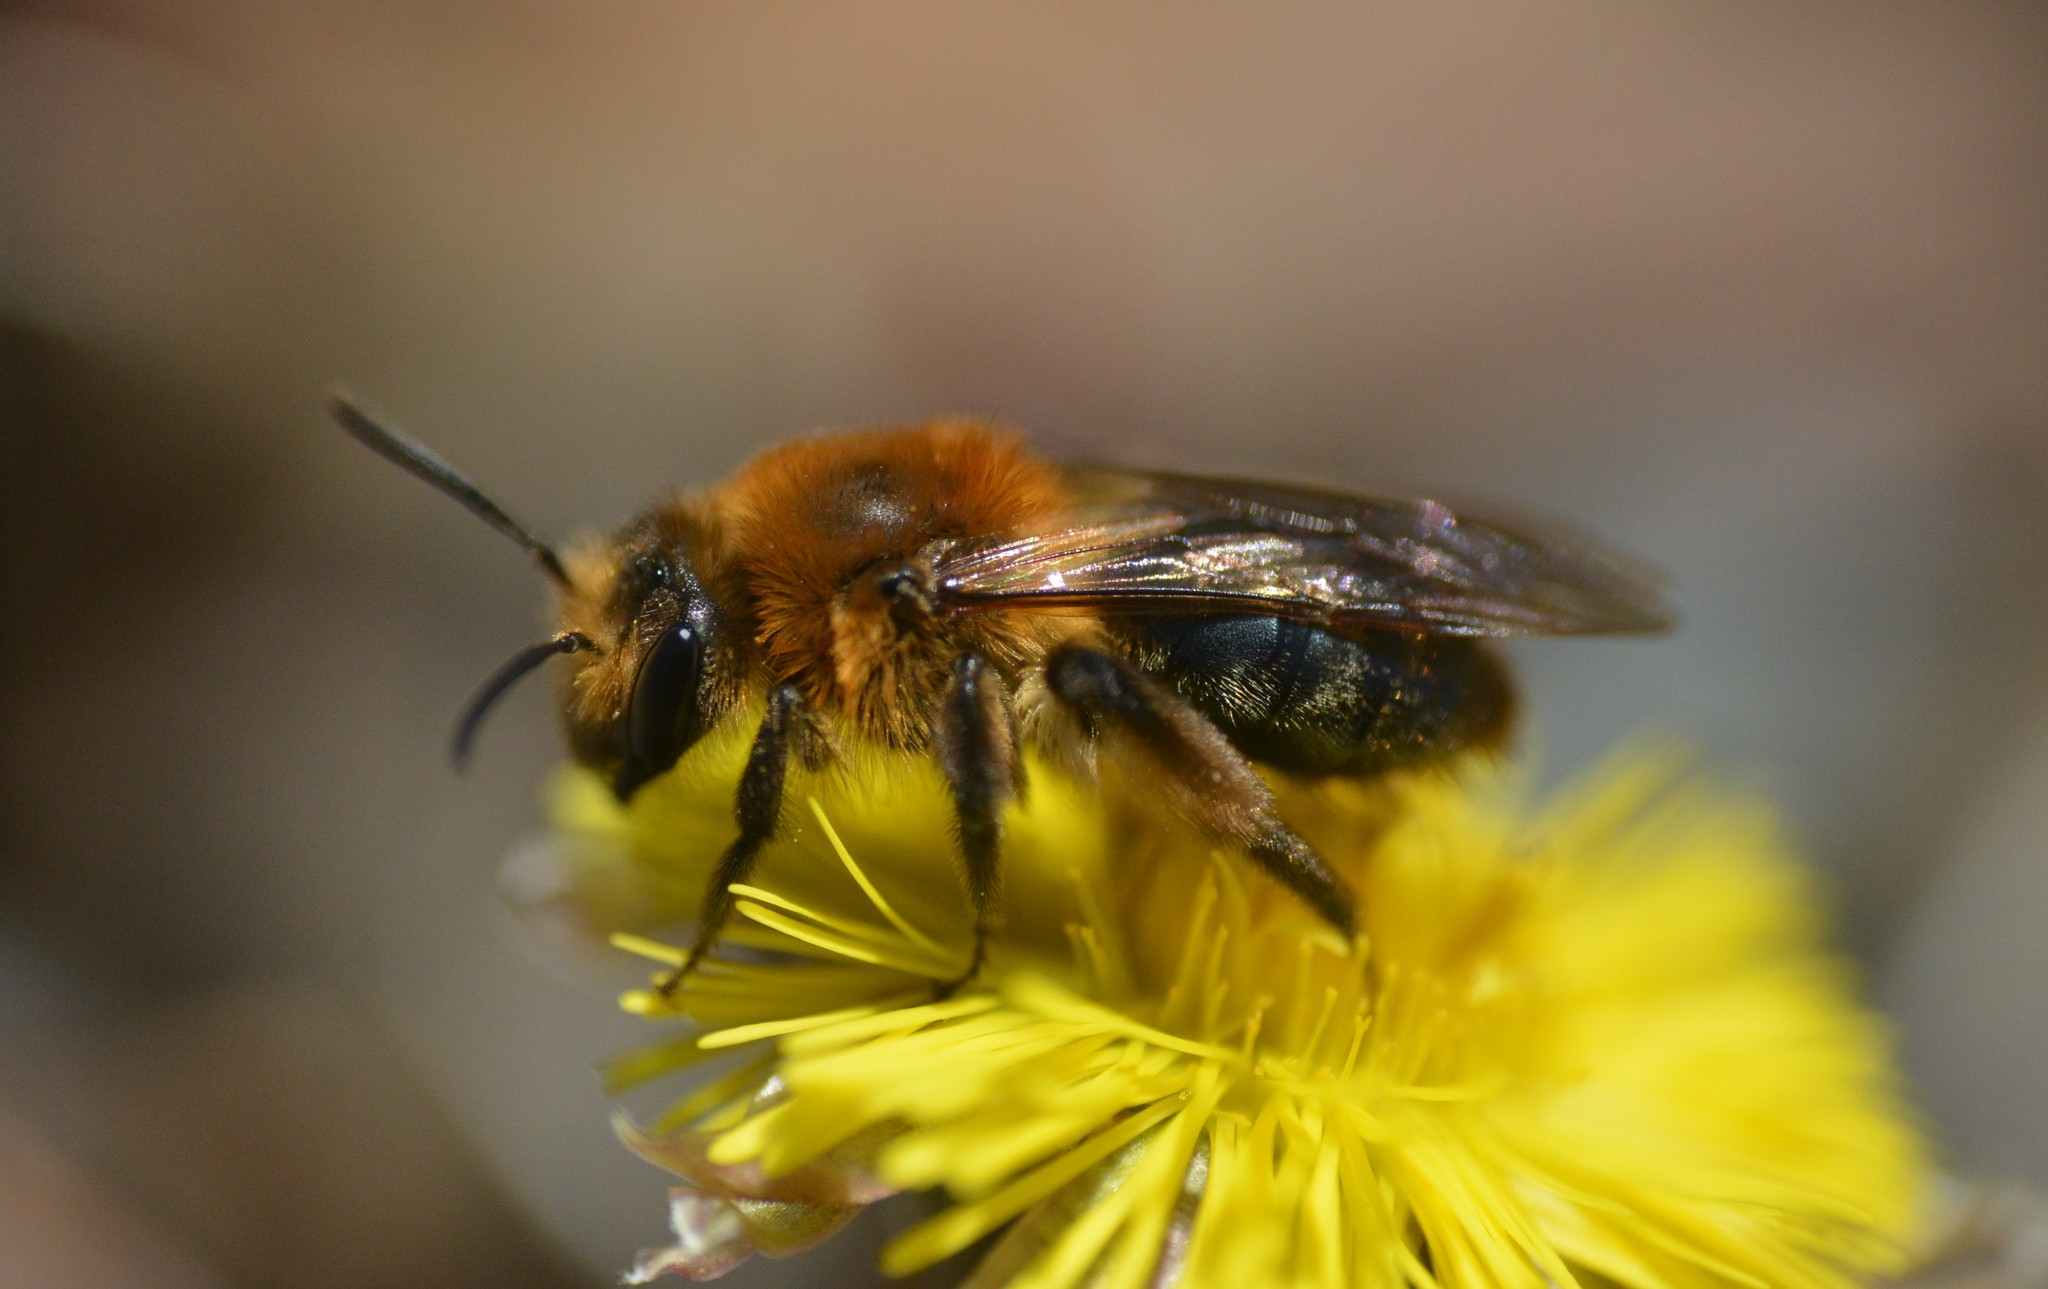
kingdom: Animalia
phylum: Arthropoda
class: Insecta
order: Hymenoptera
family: Andrenidae
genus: Andrena
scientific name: Andrena dunningi
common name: Dunning's miner
